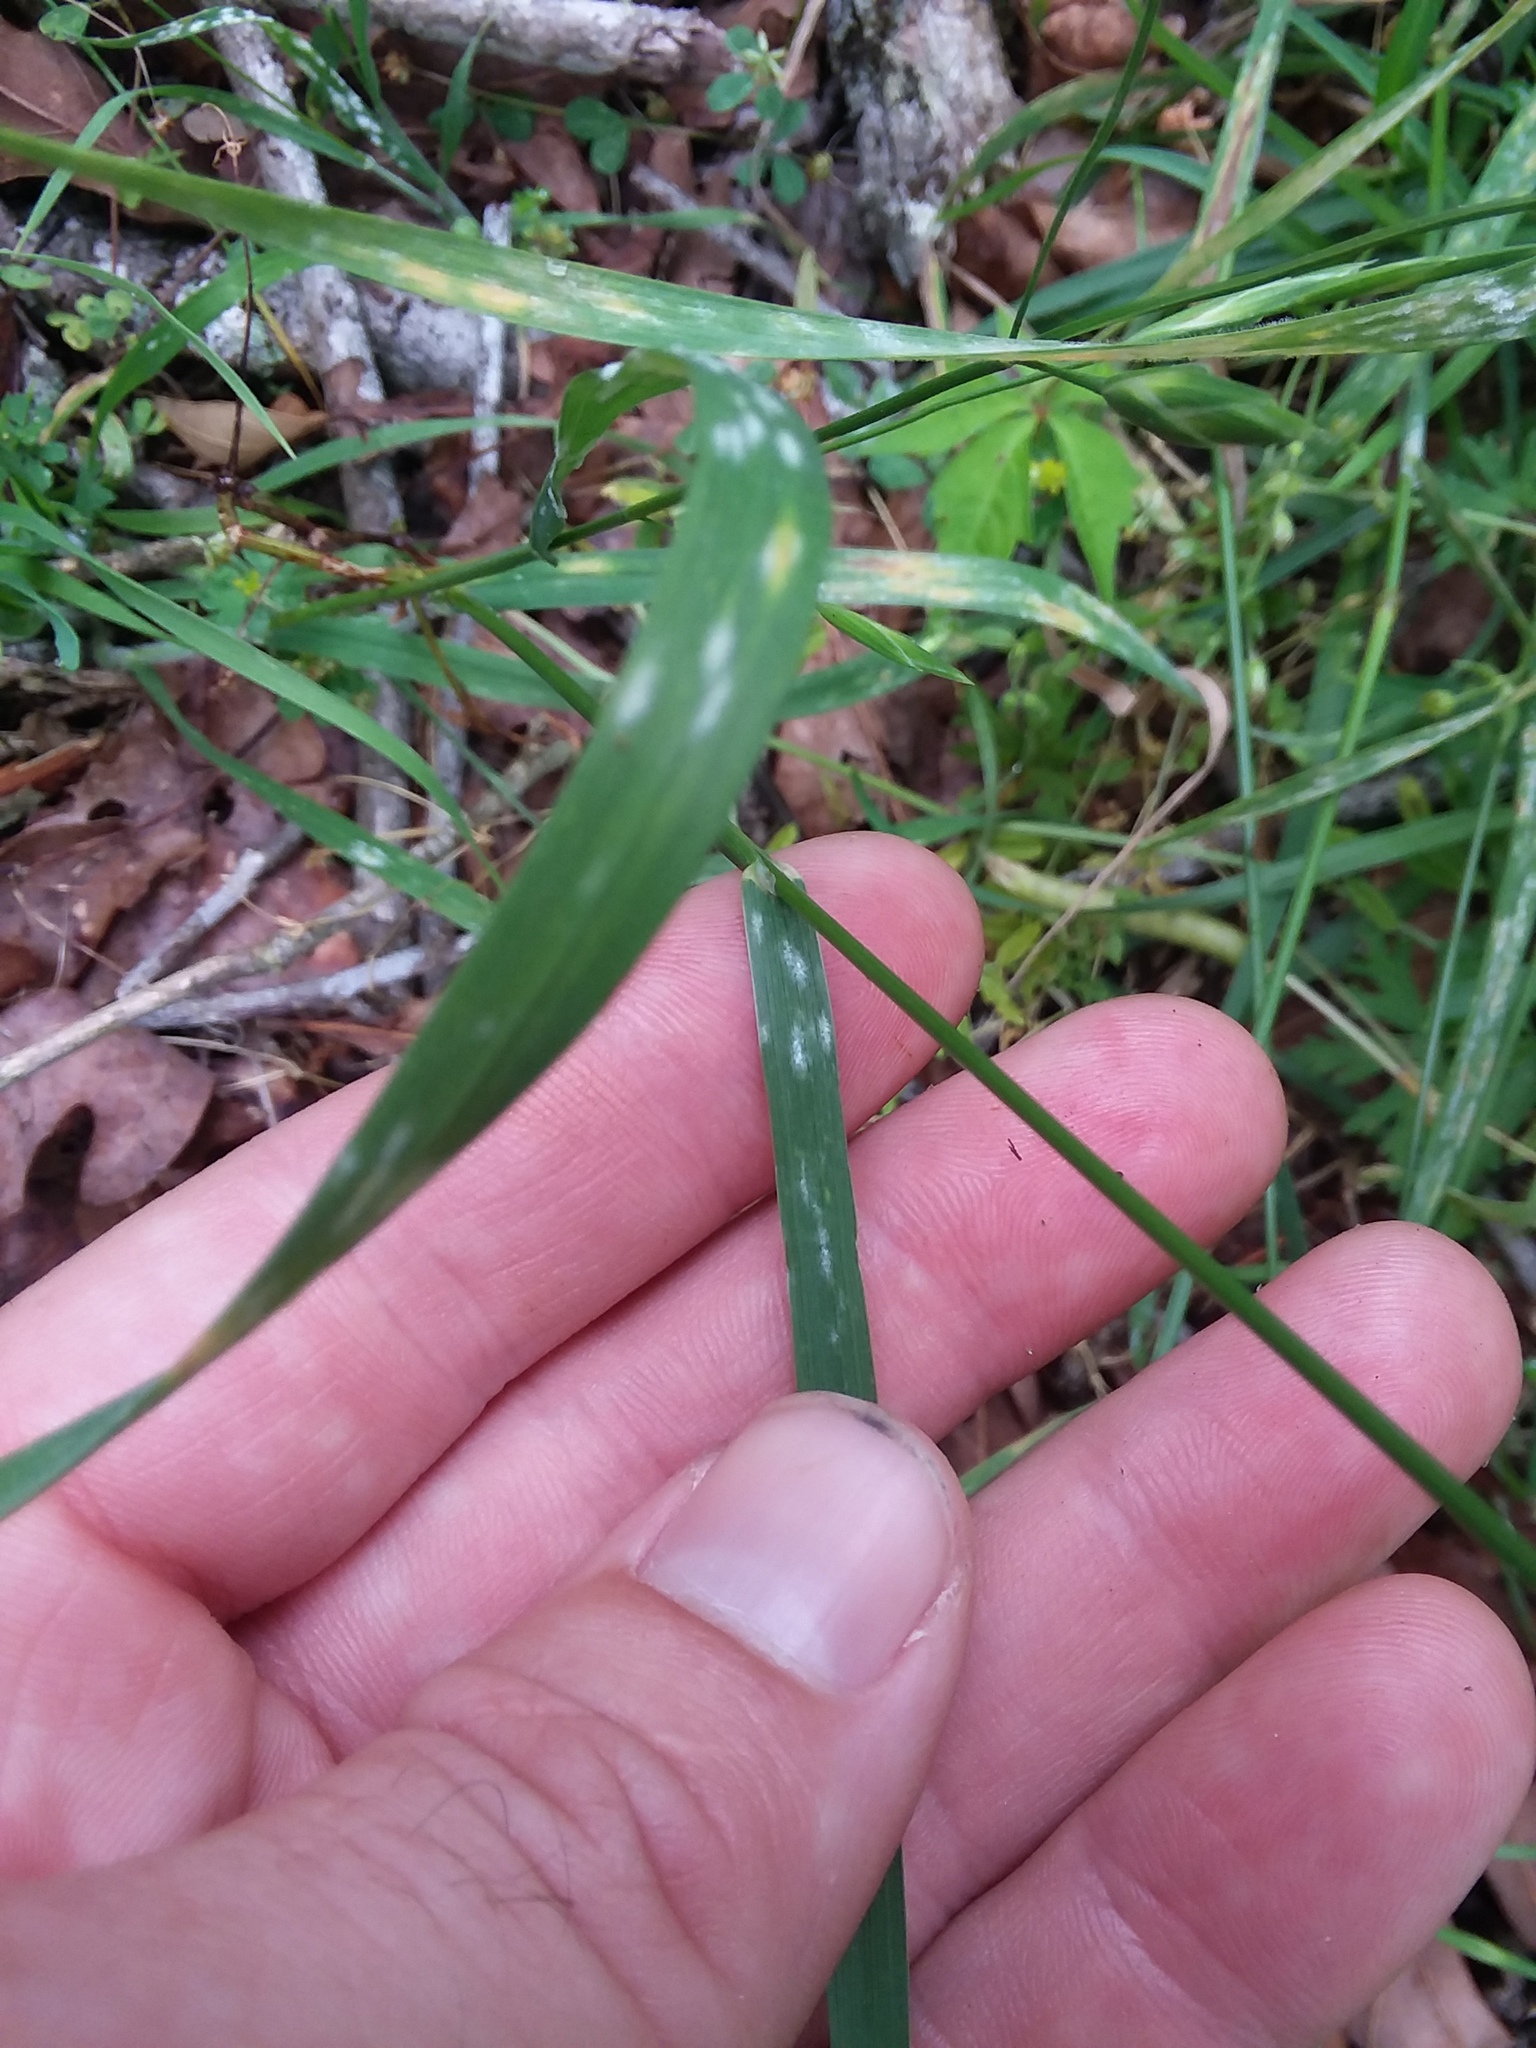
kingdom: Plantae
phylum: Tracheophyta
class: Liliopsida
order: Poales
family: Poaceae
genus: Bromus
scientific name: Bromus catharticus
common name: Rescuegrass
